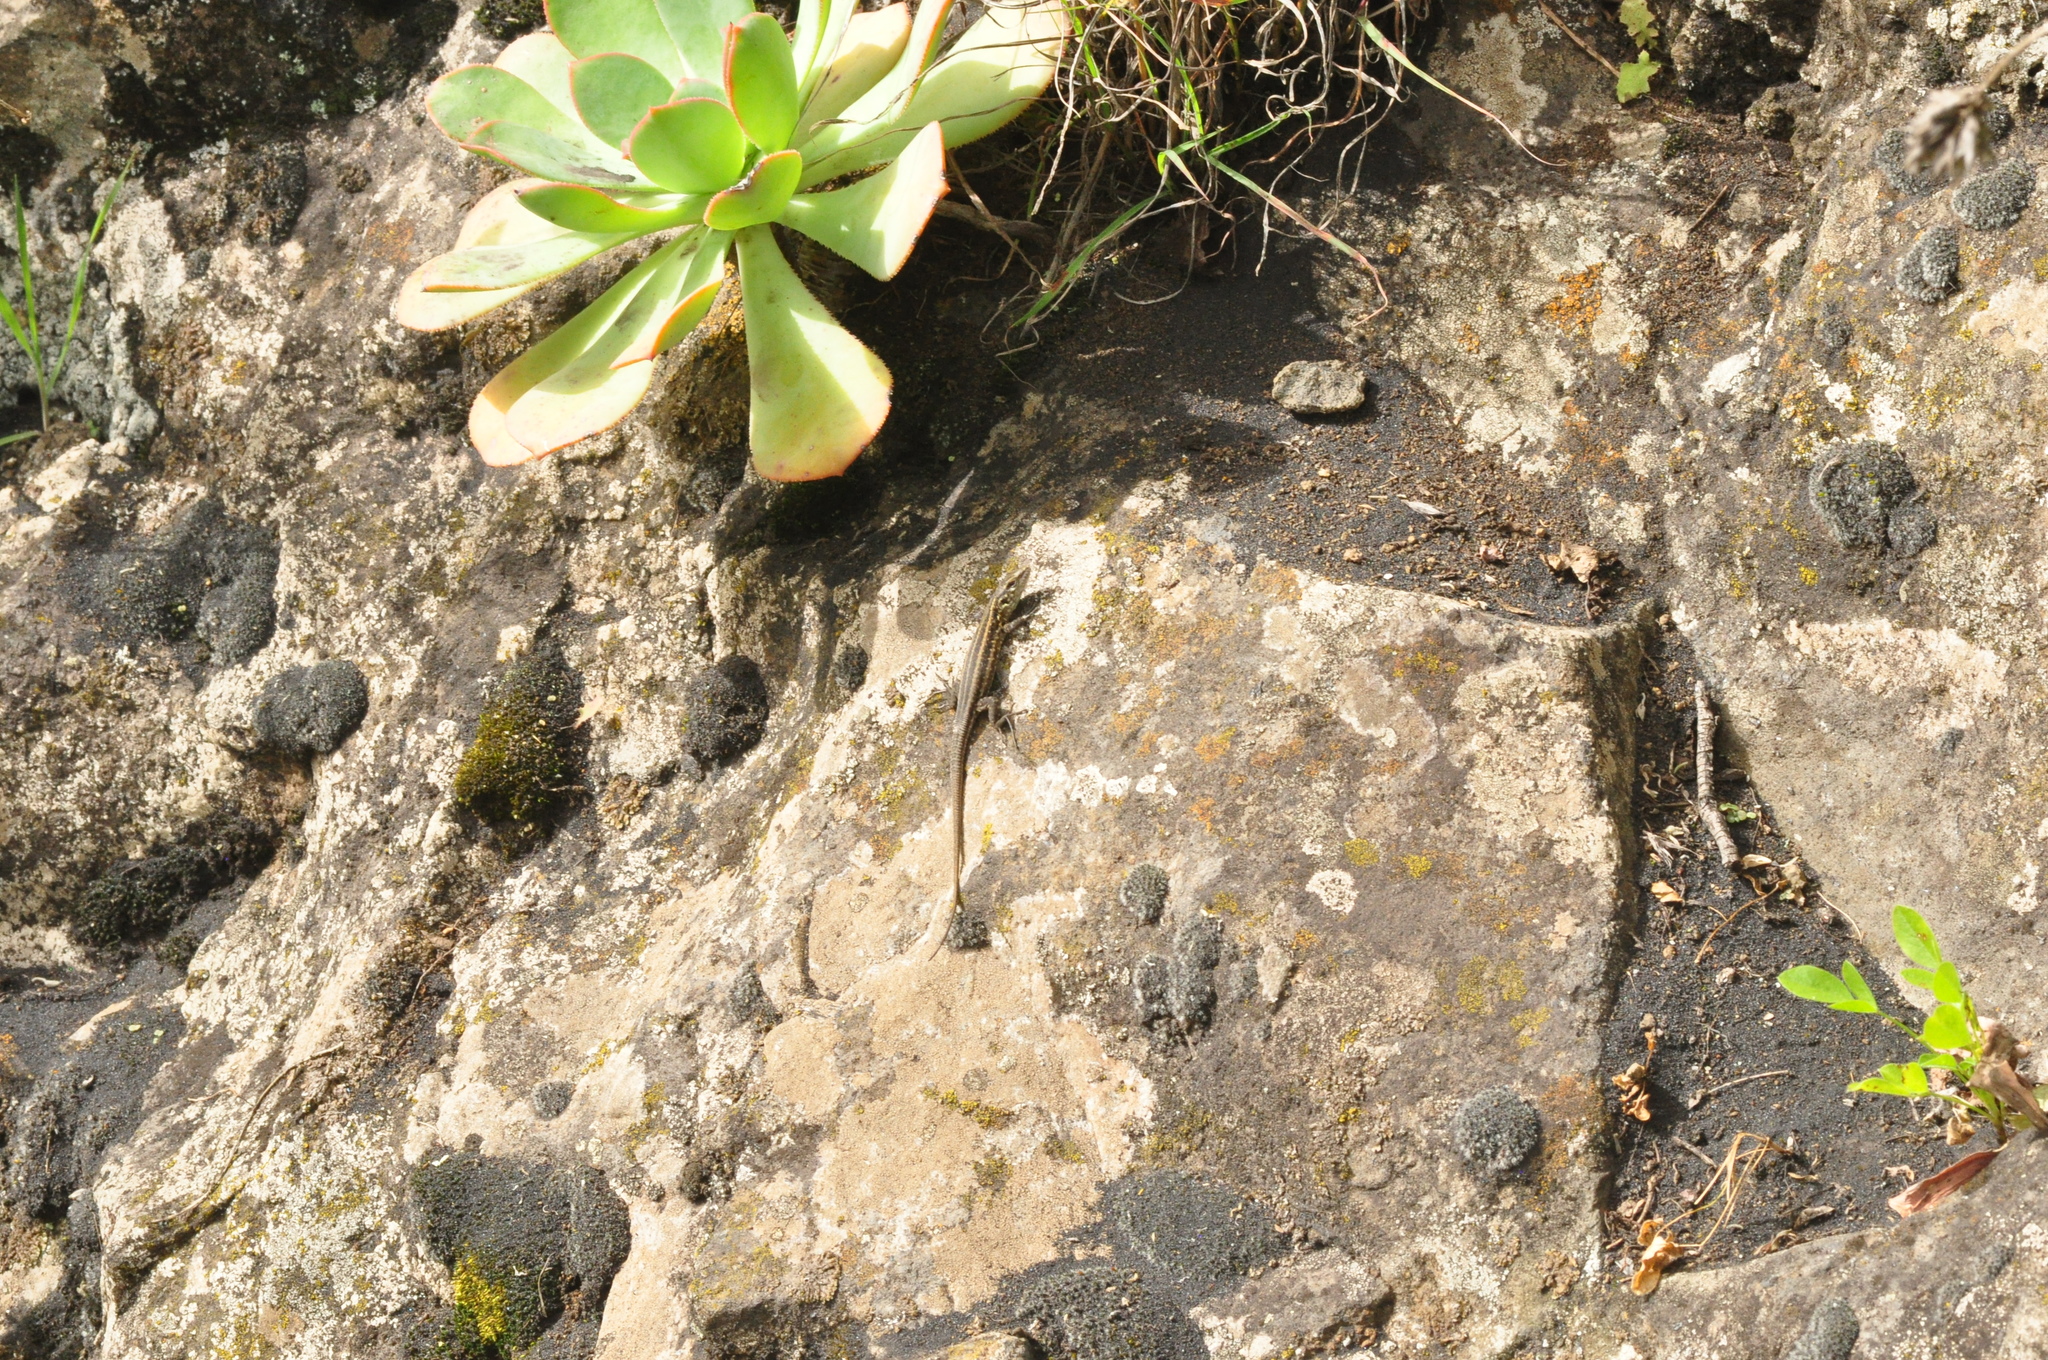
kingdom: Animalia
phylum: Chordata
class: Squamata
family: Lacertidae
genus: Gallotia
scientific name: Gallotia galloti
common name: Gallot's lizard
